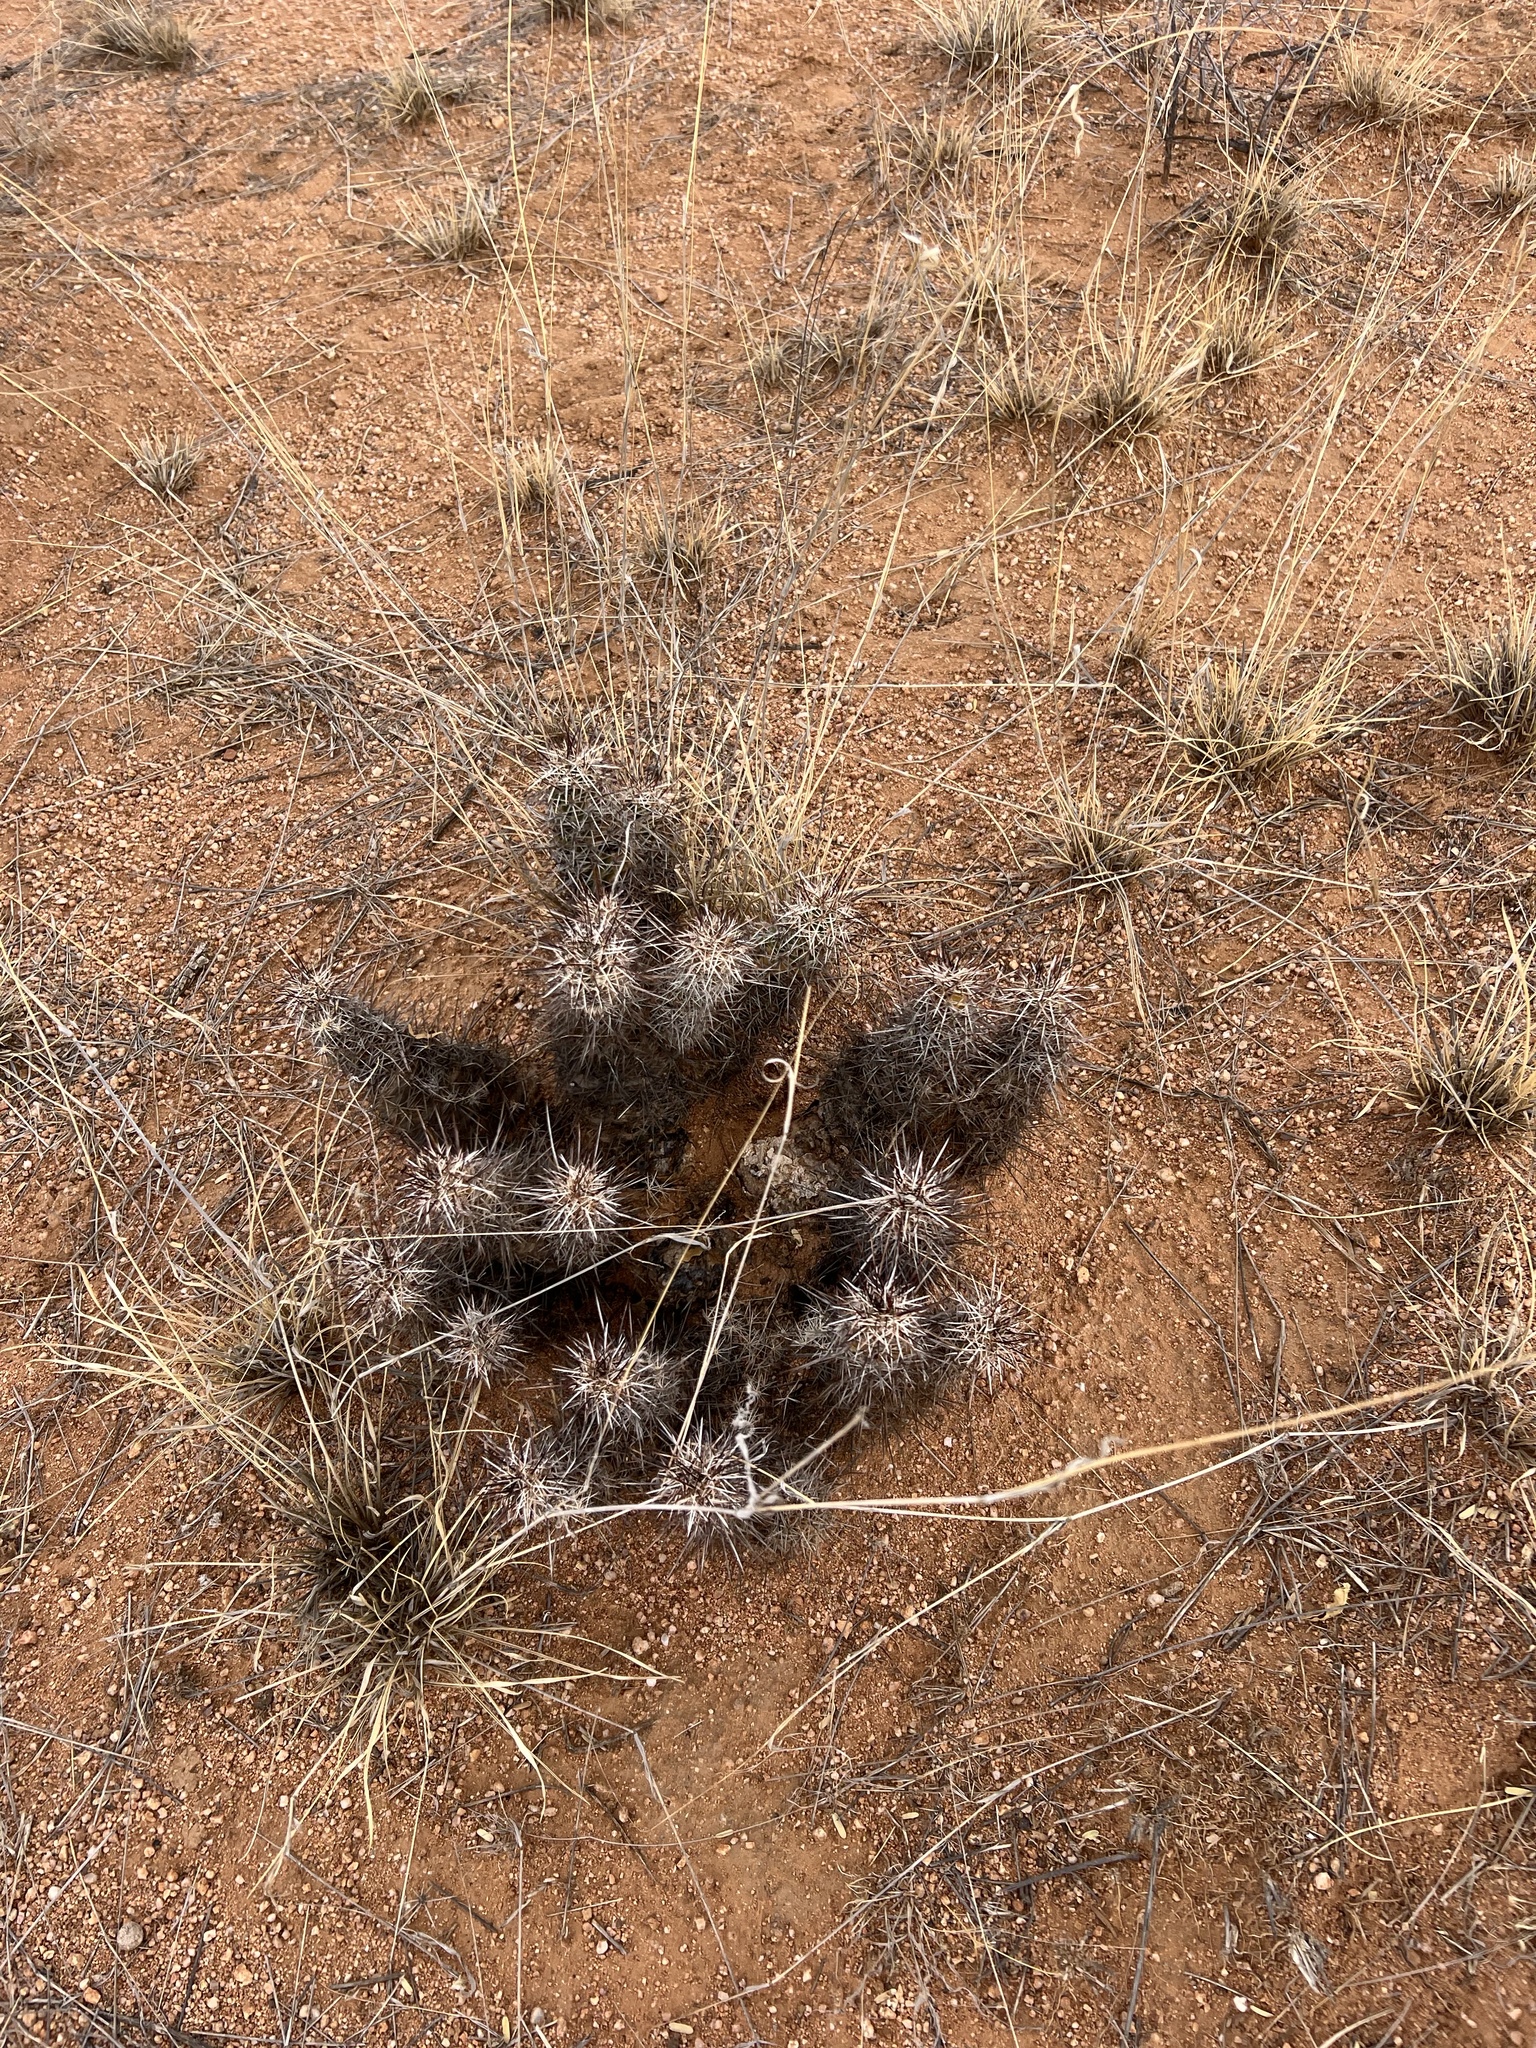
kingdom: Plantae
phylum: Tracheophyta
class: Magnoliopsida
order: Caryophyllales
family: Cactaceae
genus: Echinocereus
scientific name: Echinocereus fasciculatus
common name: Bundle hedgehog
